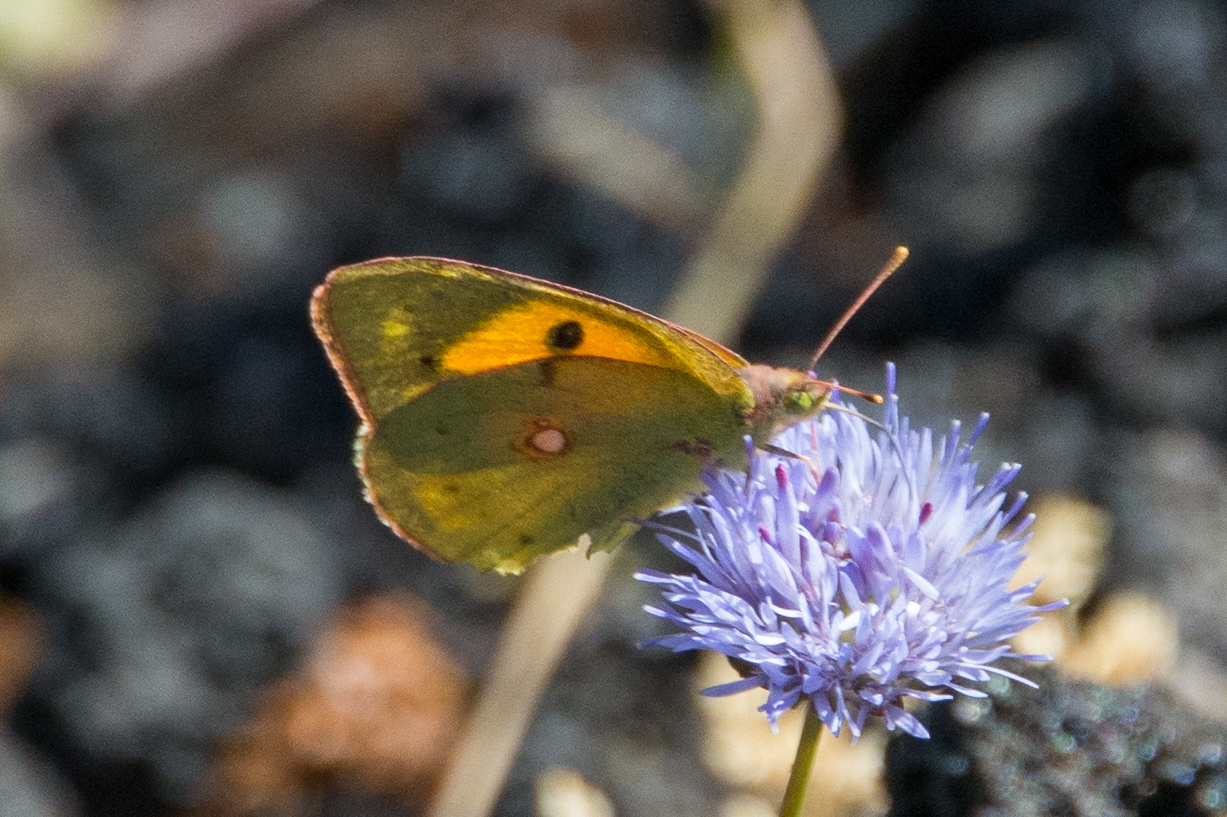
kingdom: Animalia
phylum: Arthropoda
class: Insecta
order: Lepidoptera
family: Pieridae
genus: Colias
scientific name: Colias croceus
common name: Clouded yellow
